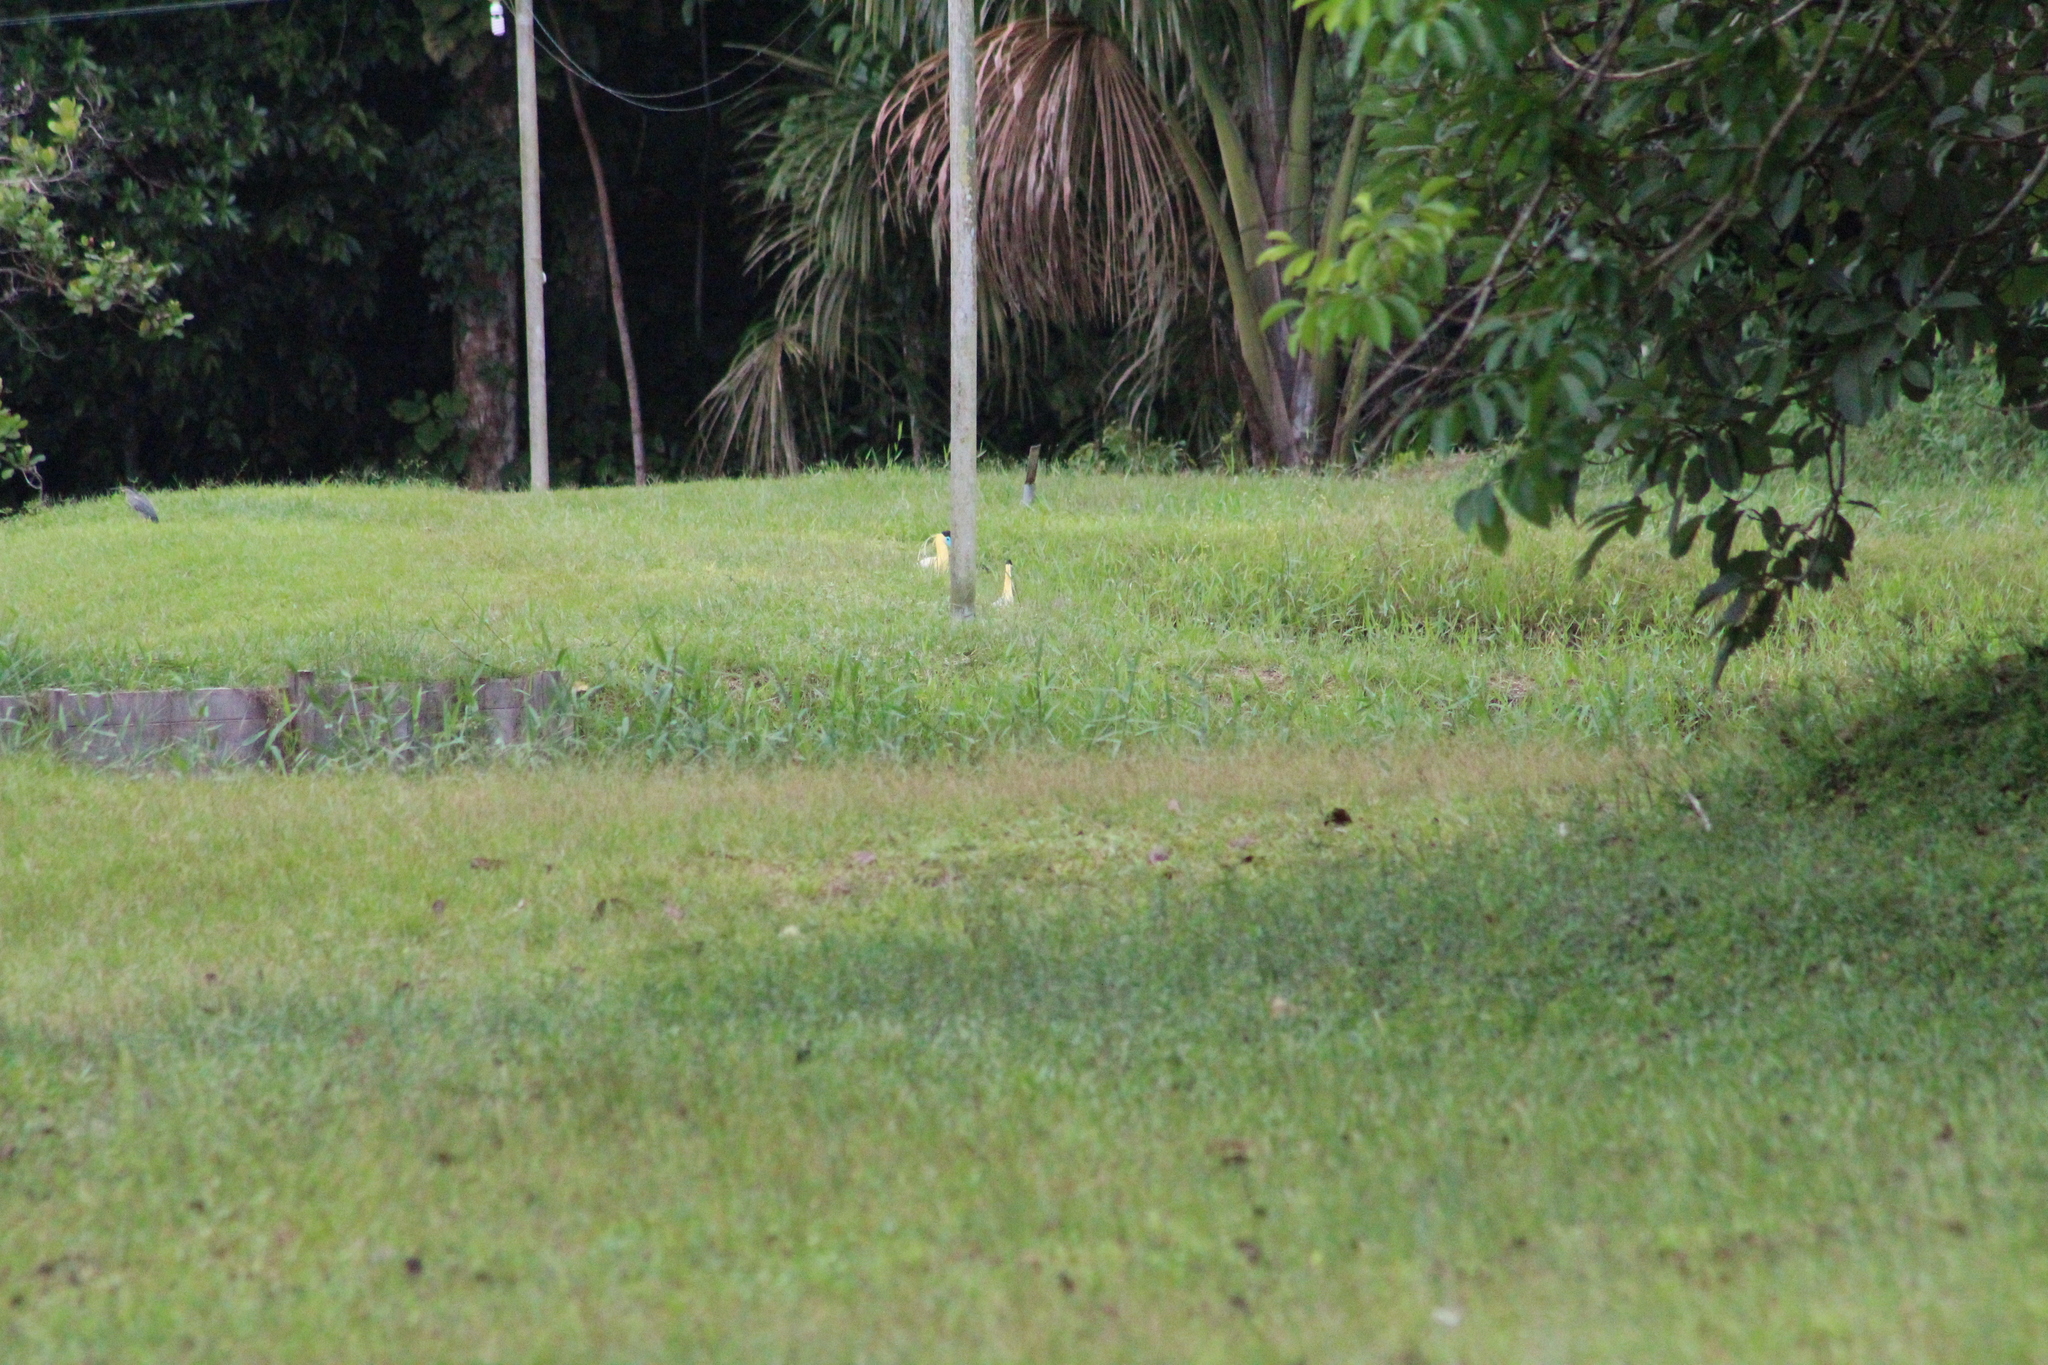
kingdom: Animalia
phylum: Chordata
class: Aves
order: Pelecaniformes
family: Ardeidae
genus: Pilherodius
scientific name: Pilherodius pileatus
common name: Capped heron
